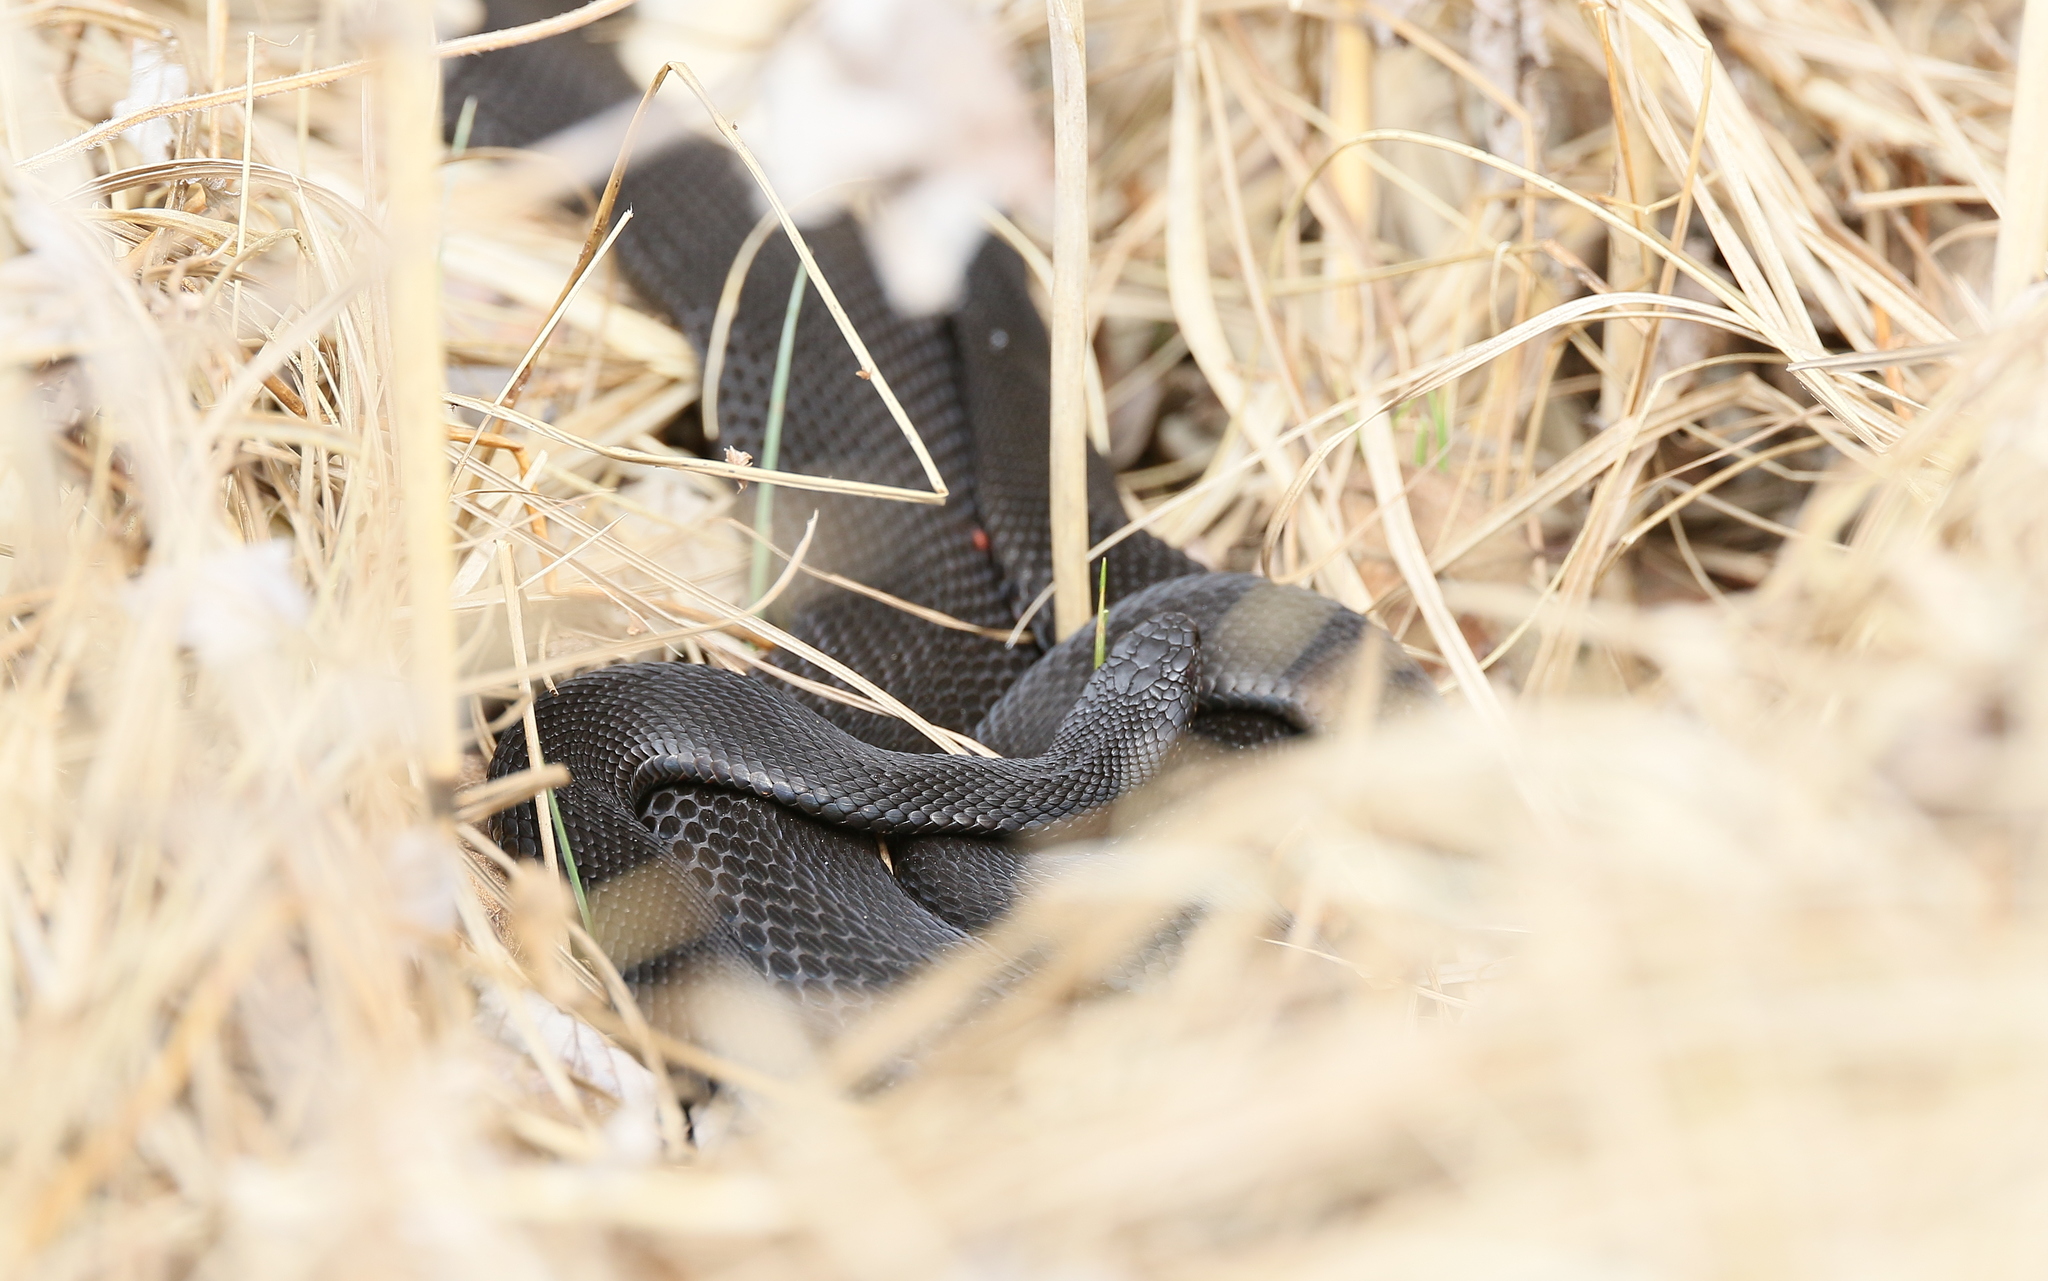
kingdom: Animalia
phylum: Chordata
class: Squamata
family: Viperidae
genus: Vipera
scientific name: Vipera berus
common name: Adder
